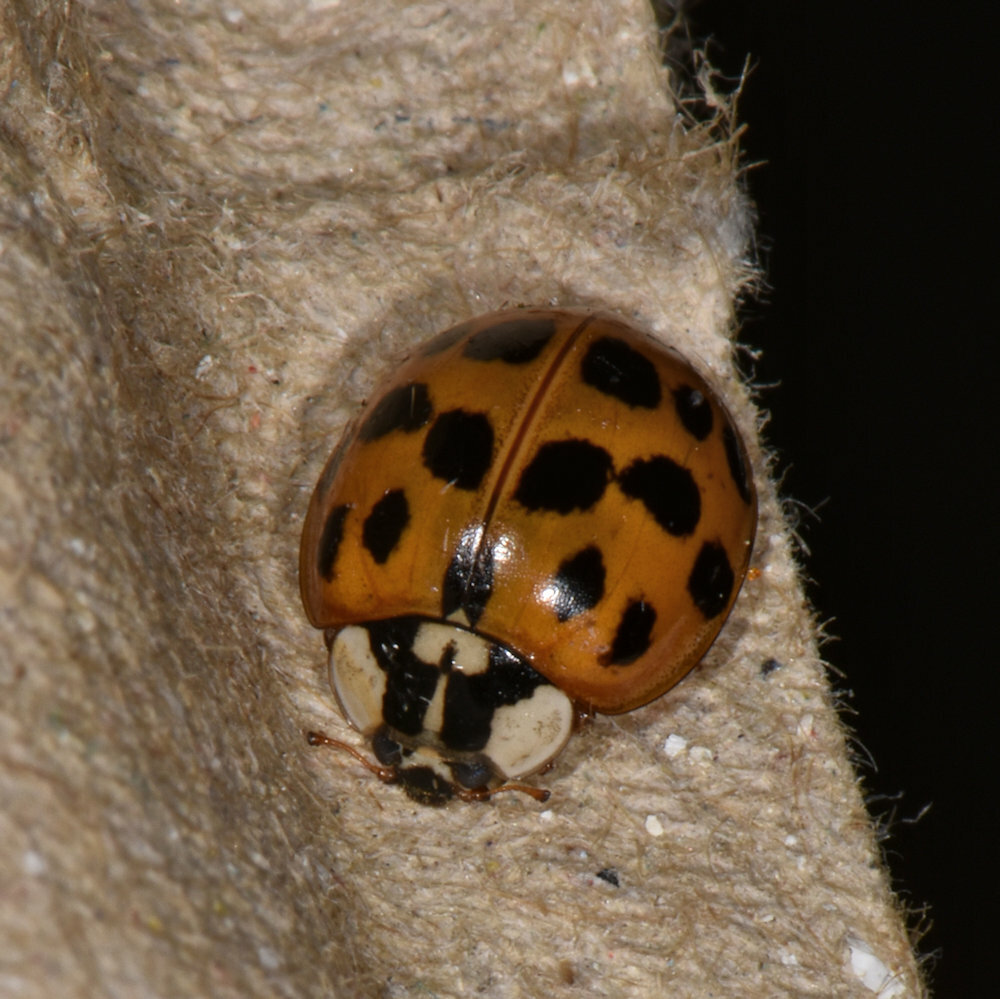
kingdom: Animalia
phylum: Arthropoda
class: Insecta
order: Coleoptera
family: Coccinellidae
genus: Harmonia
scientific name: Harmonia axyridis
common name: Harlequin ladybird
